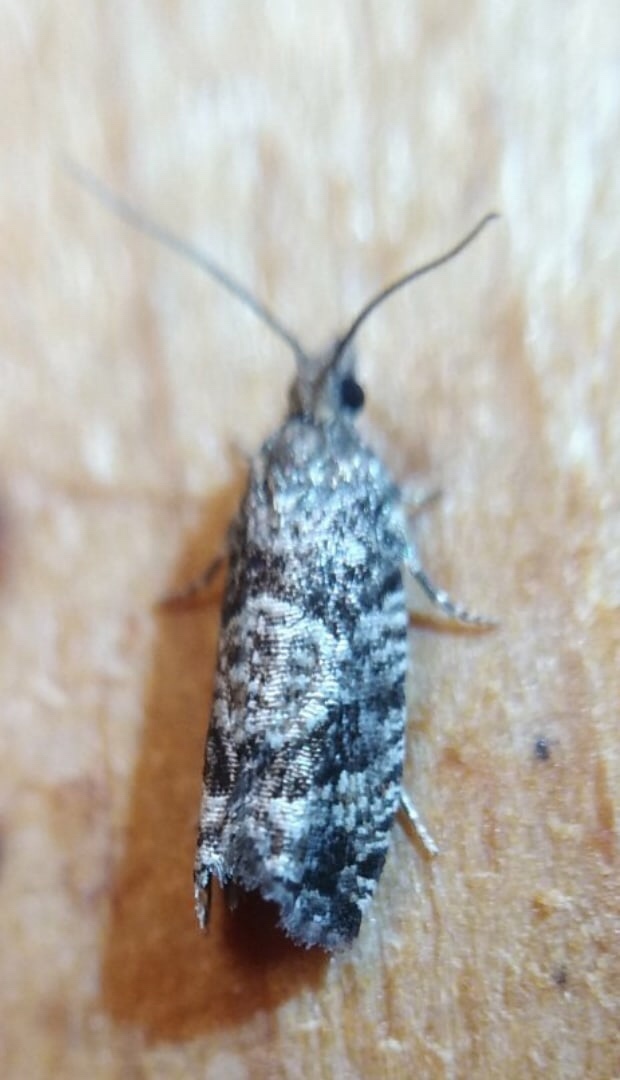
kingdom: Animalia
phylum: Arthropoda
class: Insecta
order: Lepidoptera
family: Tortricidae
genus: Zeiraphera
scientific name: Zeiraphera griseana
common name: Larch tortrix
